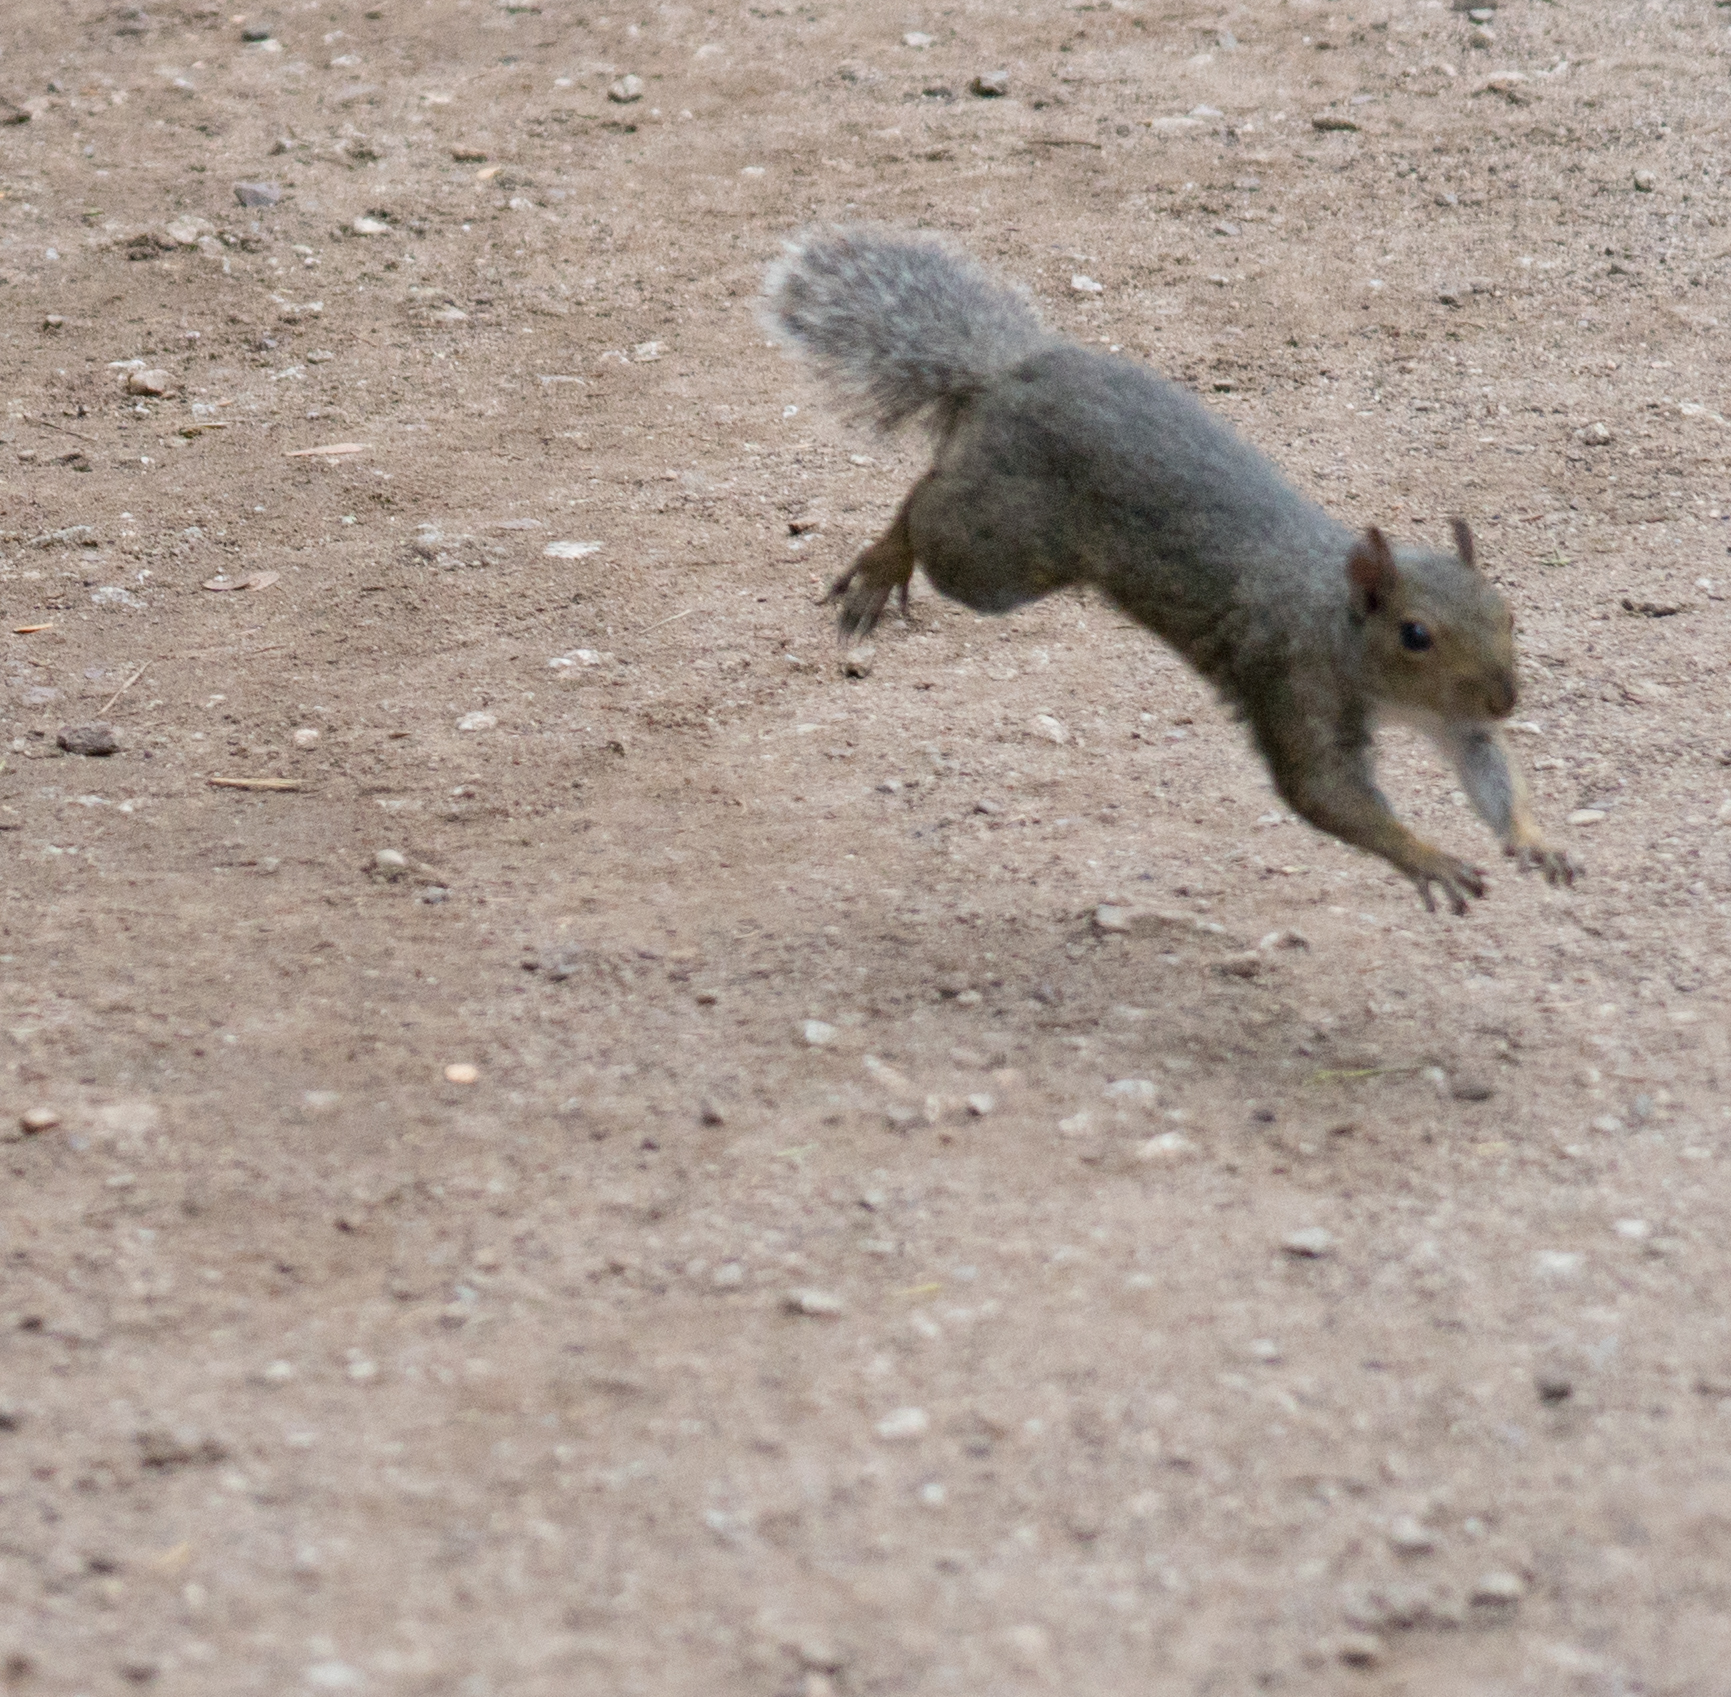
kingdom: Animalia
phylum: Chordata
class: Mammalia
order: Rodentia
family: Sciuridae
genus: Sciurus
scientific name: Sciurus carolinensis
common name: Eastern gray squirrel
